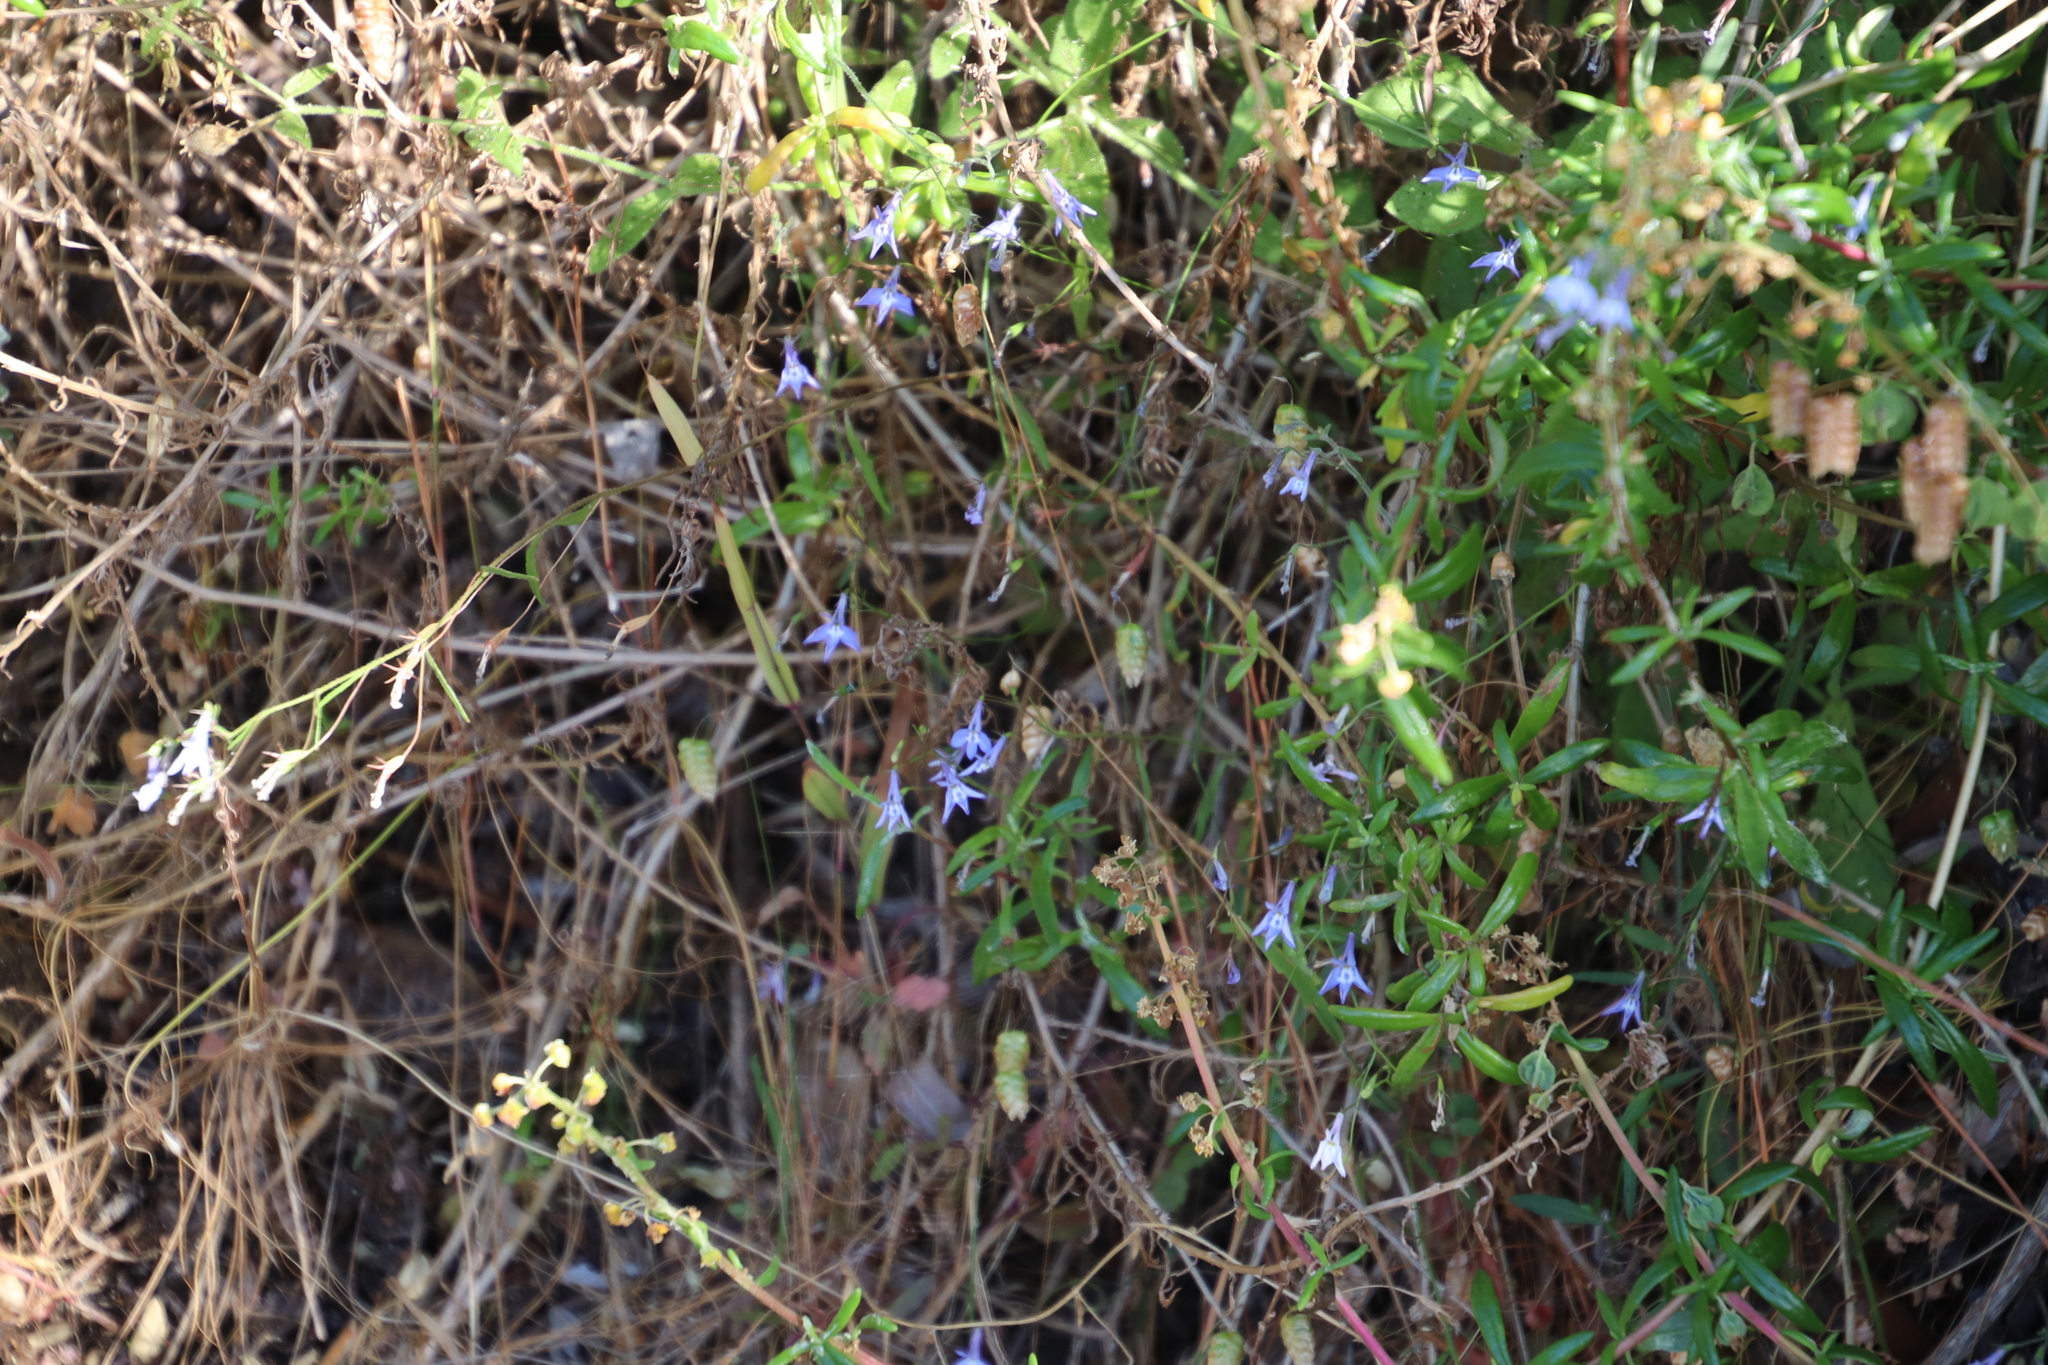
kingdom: Plantae
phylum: Tracheophyta
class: Magnoliopsida
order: Asterales
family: Campanulaceae
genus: Lobelia
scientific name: Lobelia erinus
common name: Edging lobelia
